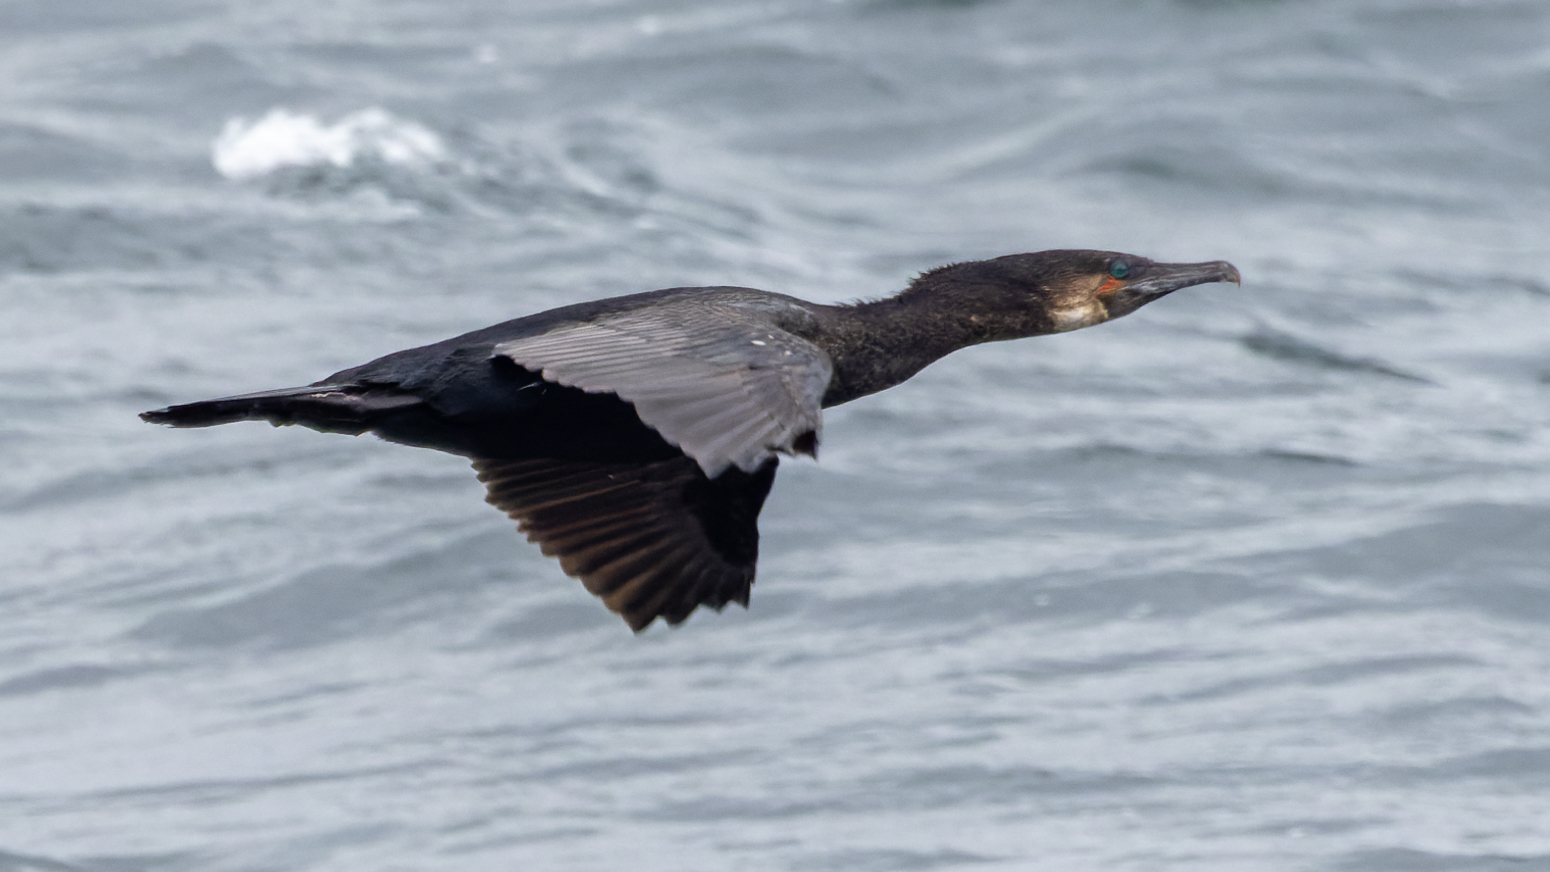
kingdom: Animalia
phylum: Chordata
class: Aves
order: Suliformes
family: Phalacrocoracidae
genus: Phalacrocorax
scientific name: Phalacrocorax carbo
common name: Great cormorant
